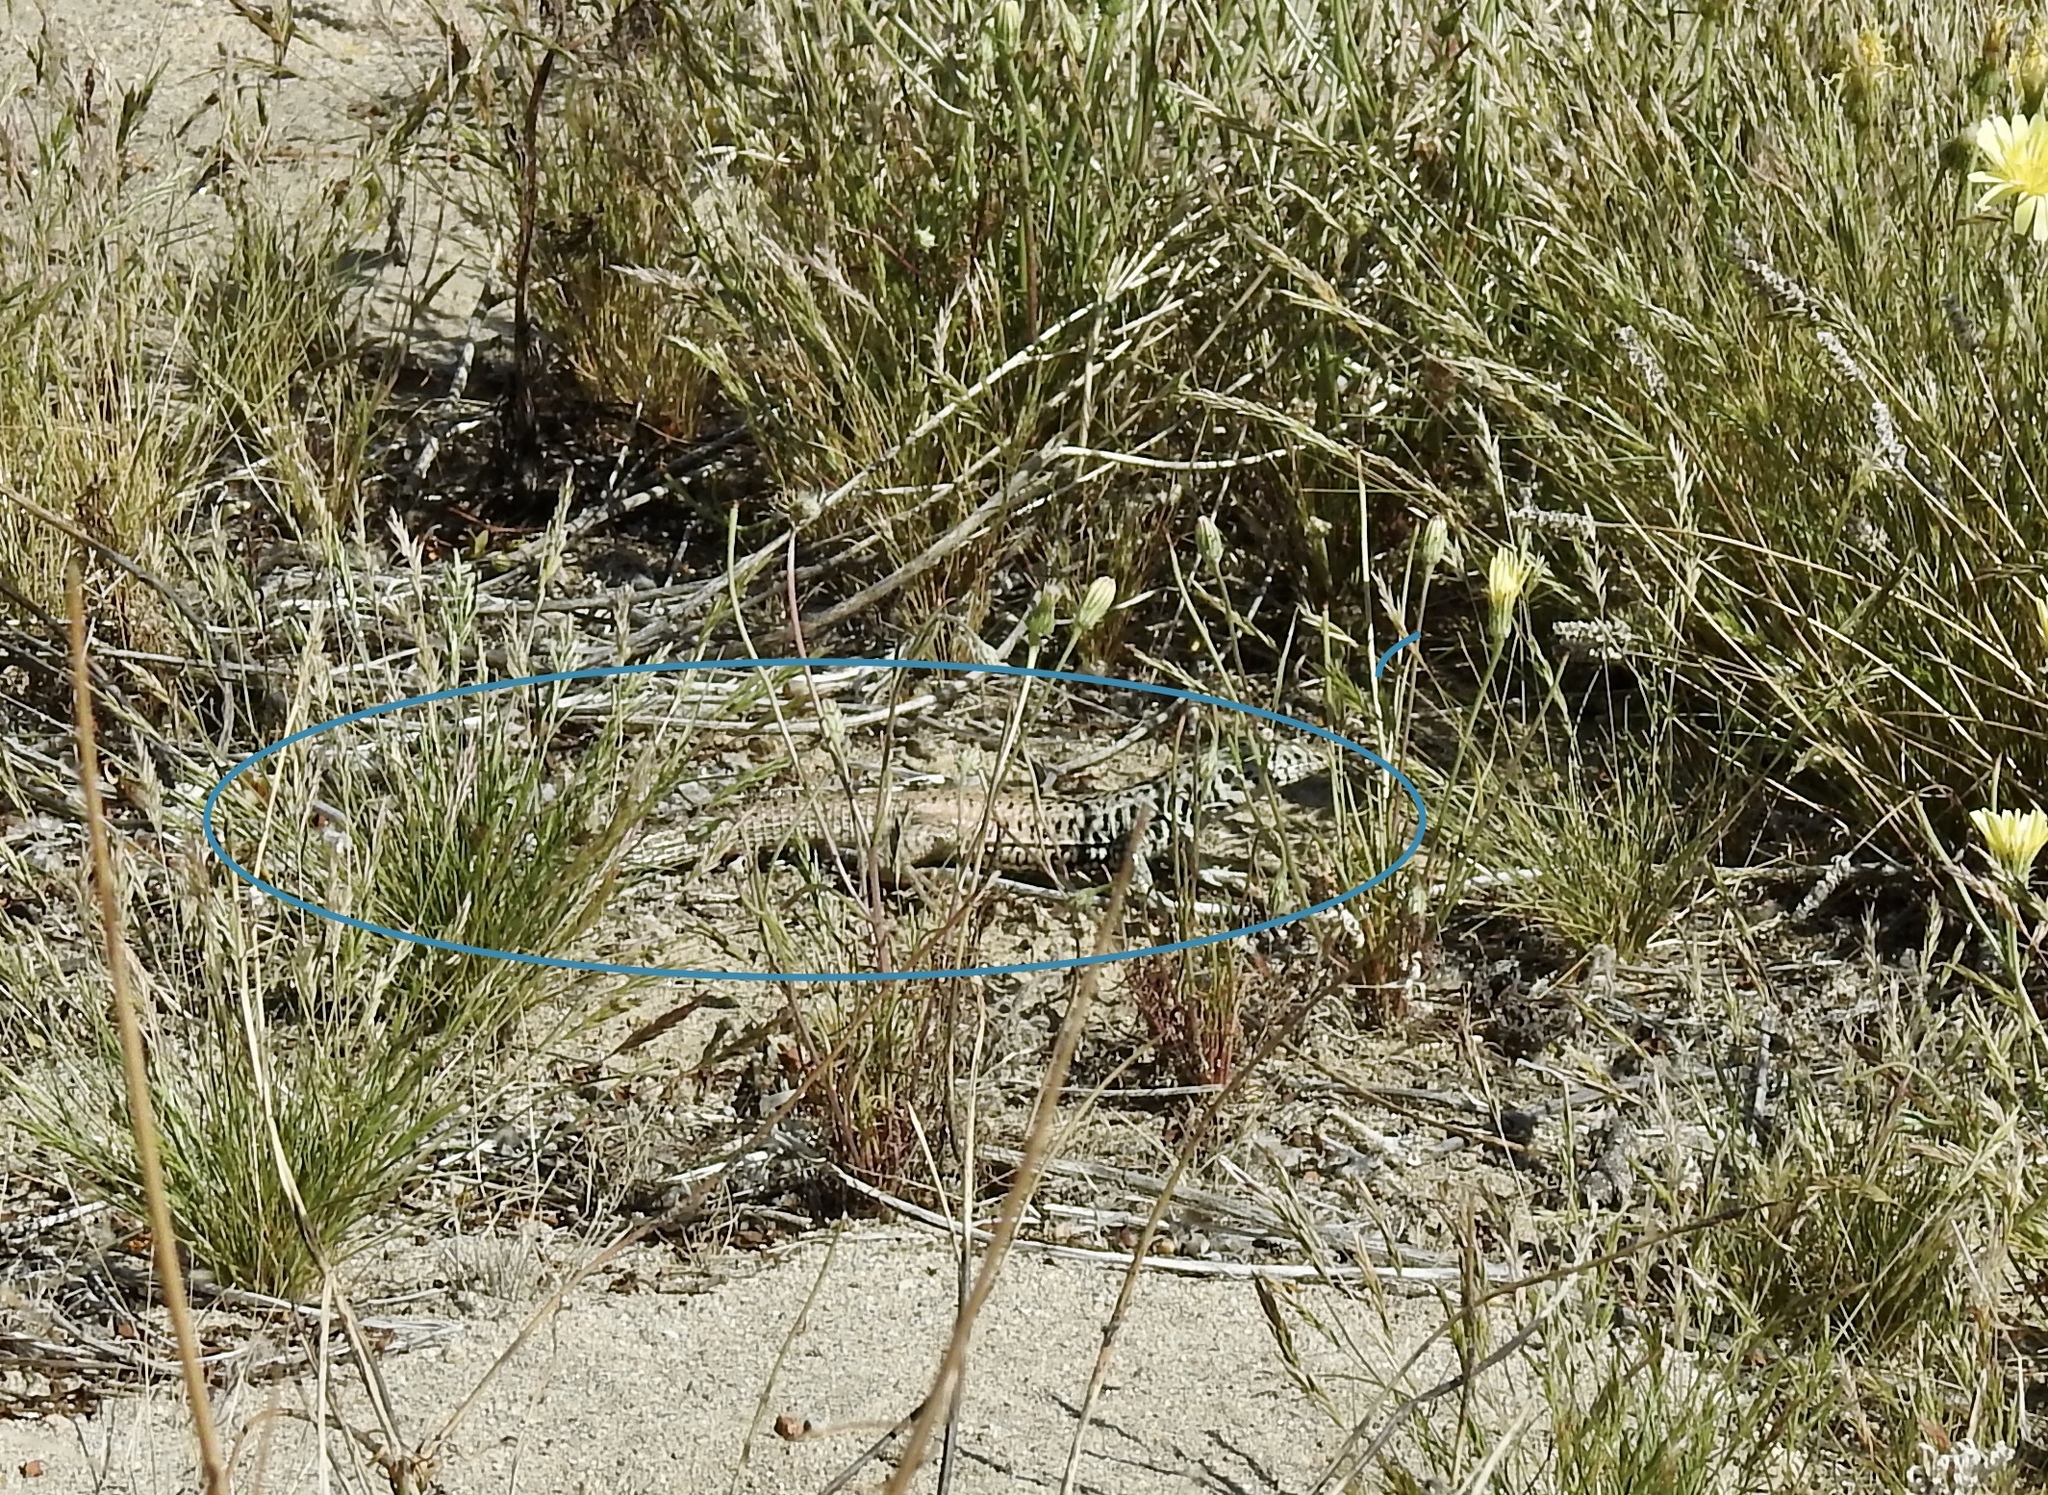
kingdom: Animalia
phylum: Chordata
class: Squamata
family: Teiidae
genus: Aspidoscelis
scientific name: Aspidoscelis tigris
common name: Tiger whiptail
